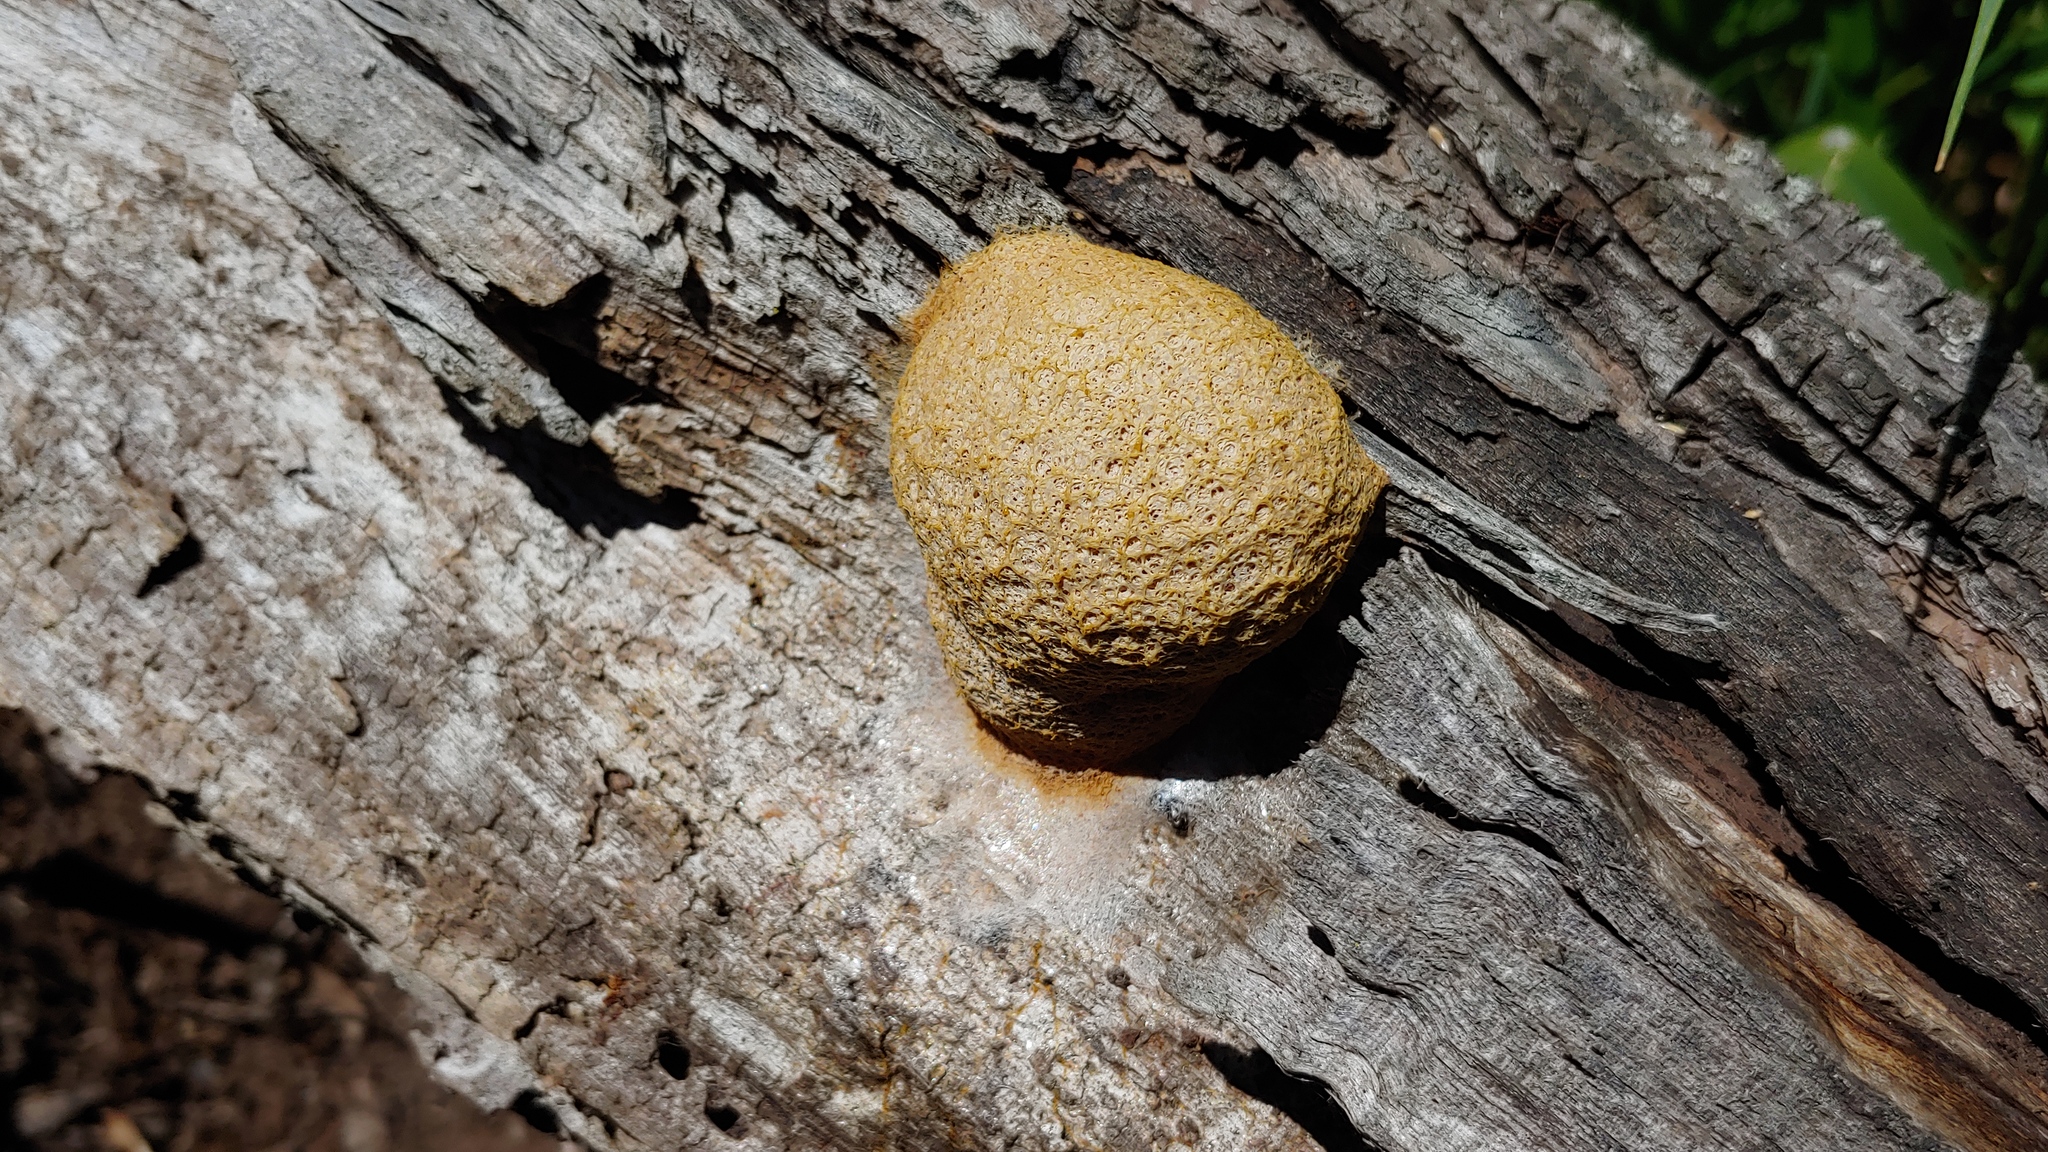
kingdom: Protozoa
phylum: Mycetozoa
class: Myxomycetes
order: Physarales
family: Physaraceae
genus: Fuligo
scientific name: Fuligo septica
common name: Dog vomit slime mold
